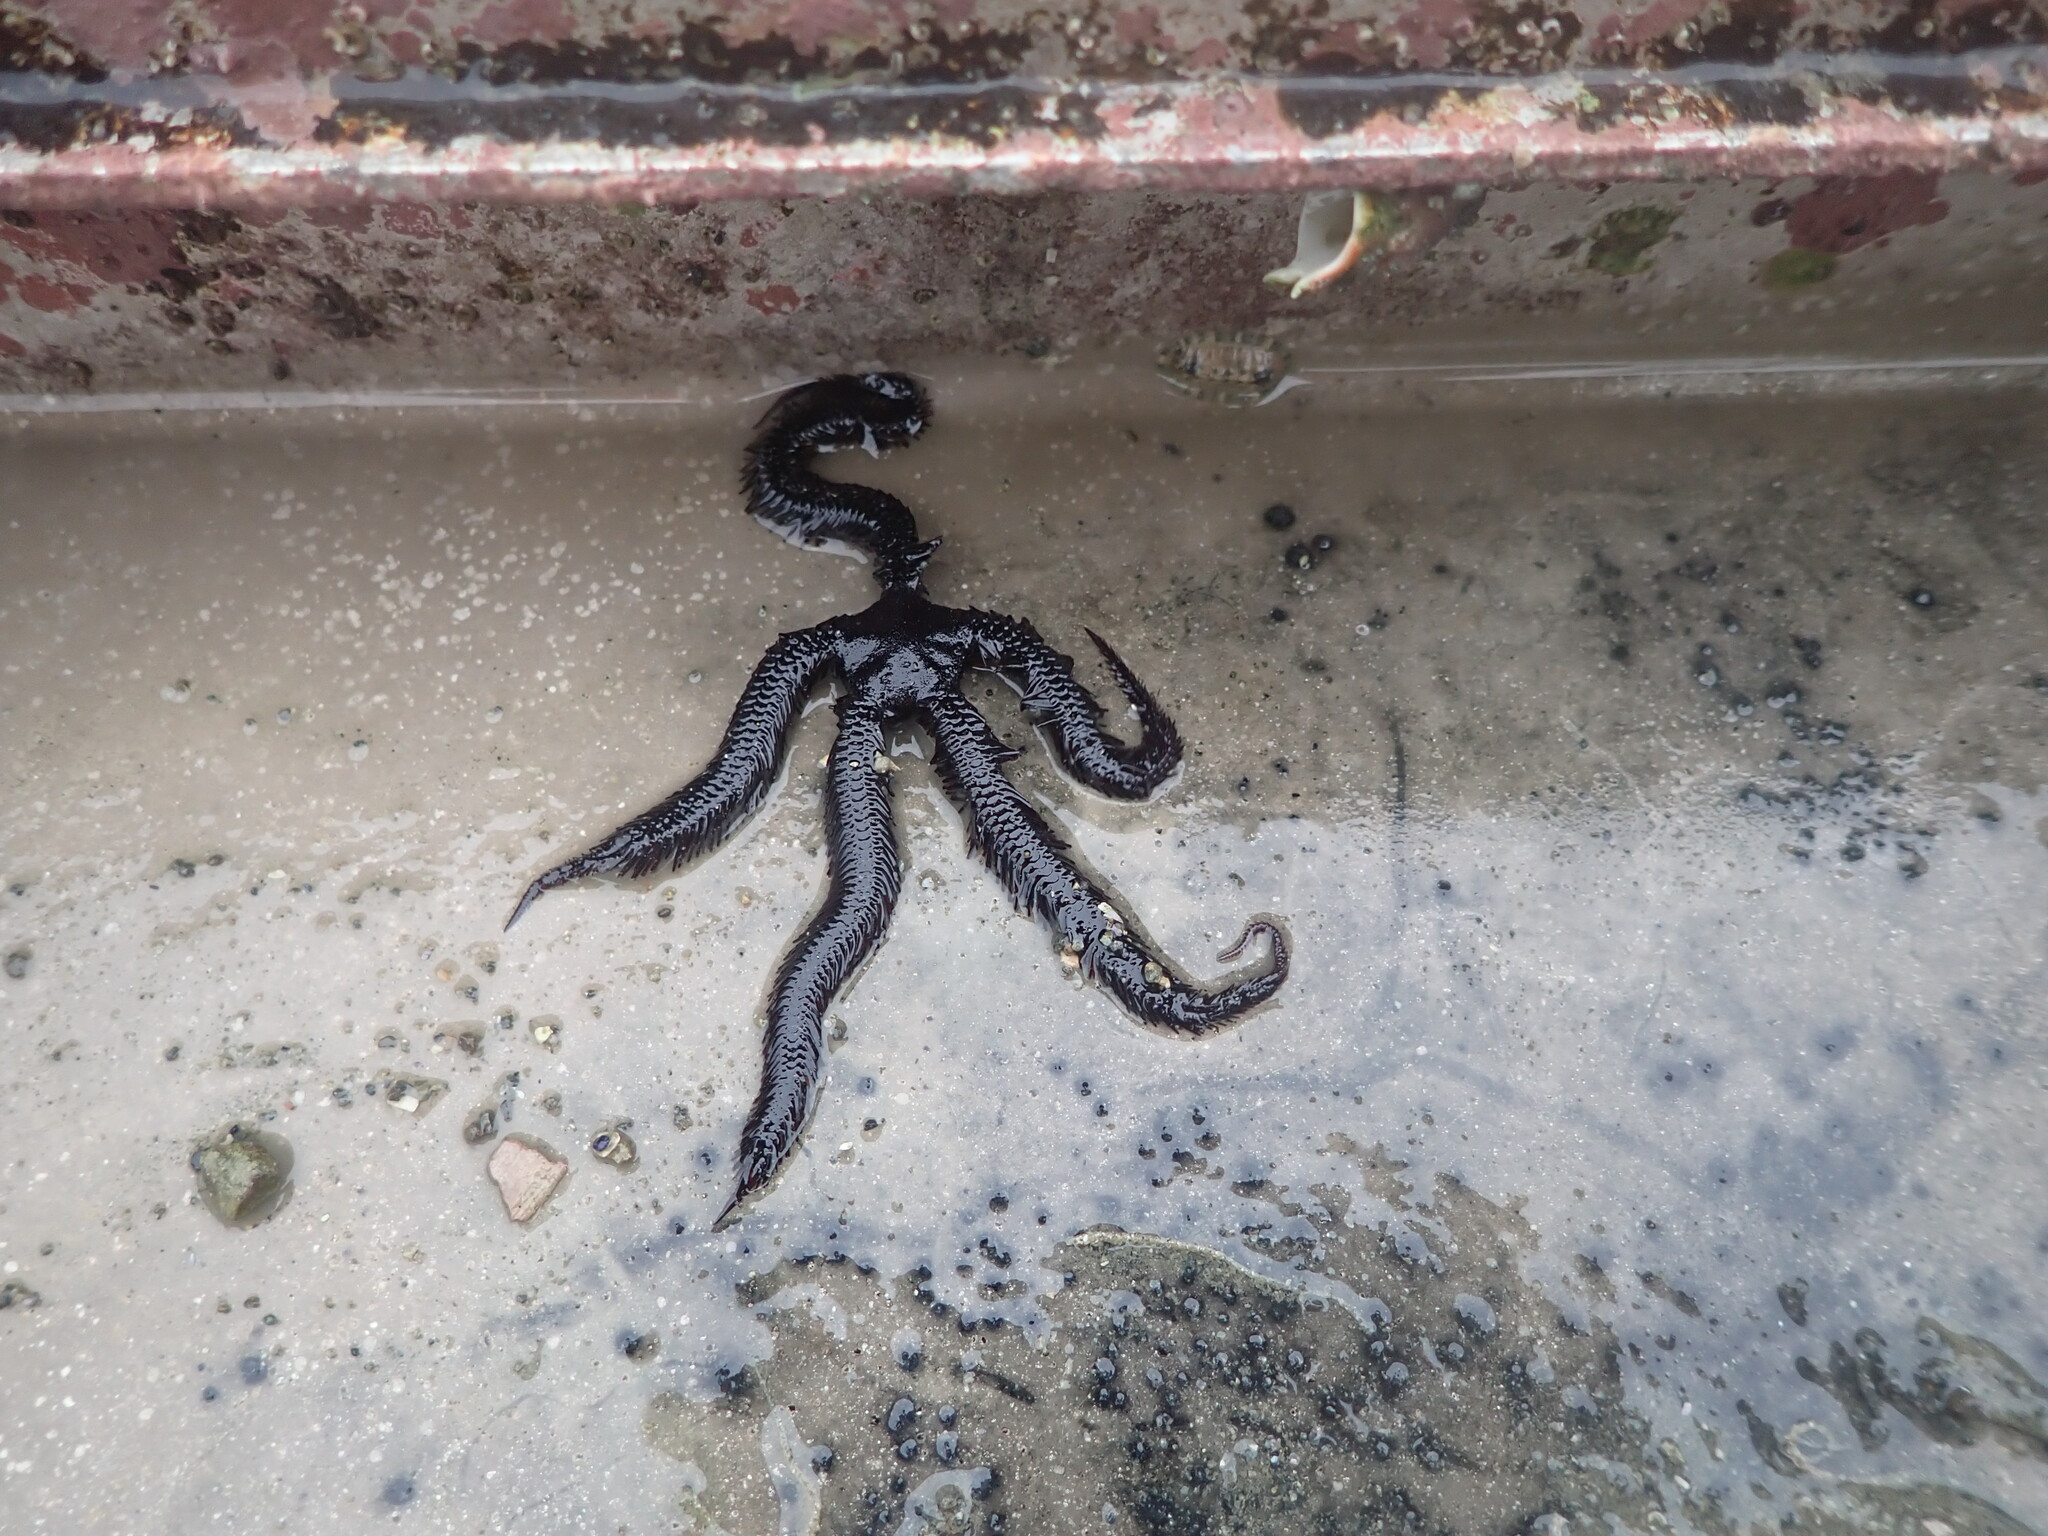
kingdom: Animalia
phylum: Echinodermata
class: Ophiuroidea
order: Ophiacanthida
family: Ophiopteridae
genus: Ophiopteris
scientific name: Ophiopteris antipodum
